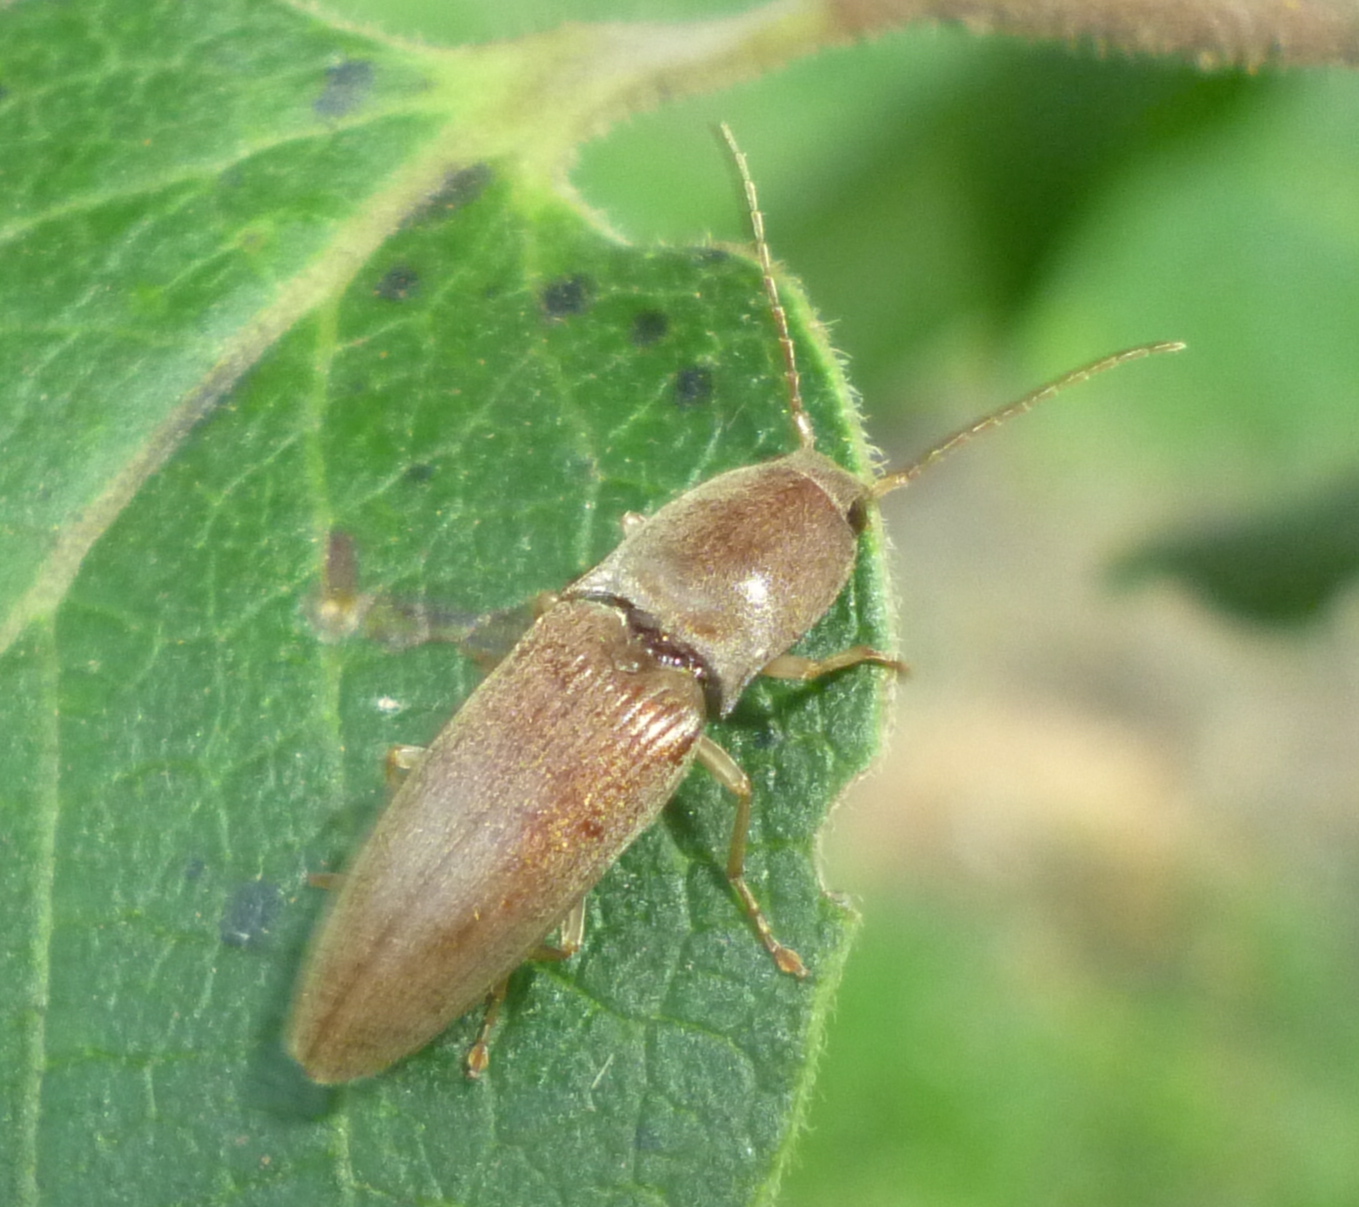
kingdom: Animalia
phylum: Arthropoda
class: Insecta
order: Coleoptera
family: Elateridae
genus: Monocrepidius
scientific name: Monocrepidius lividus
